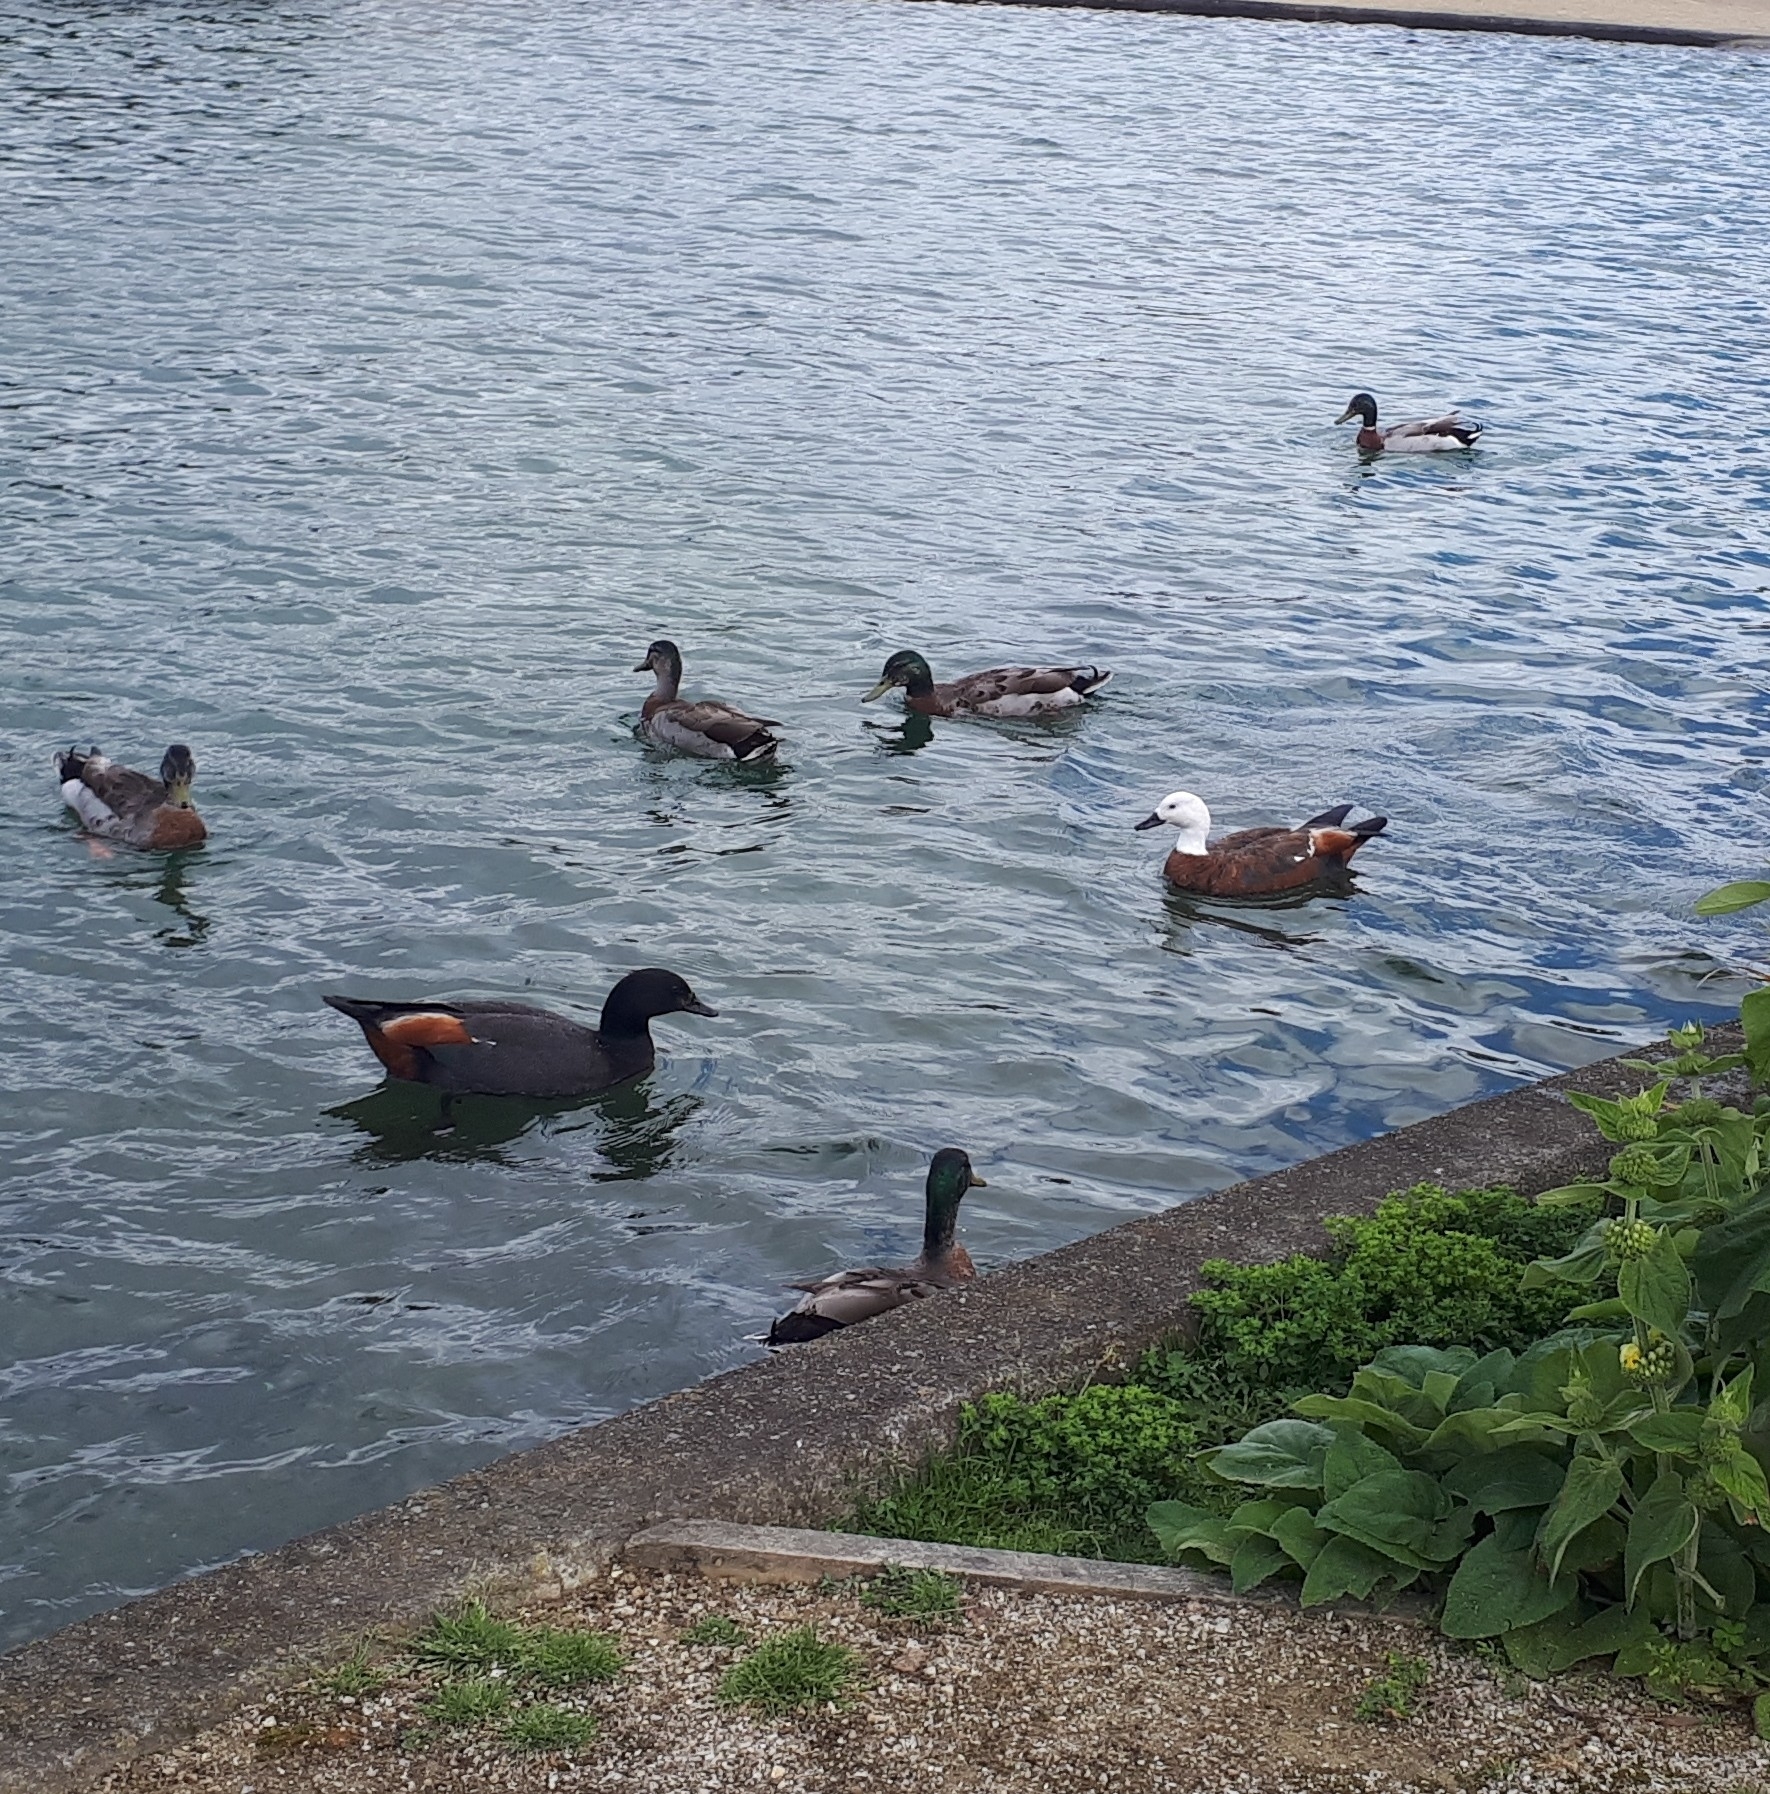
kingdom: Animalia
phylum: Chordata
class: Aves
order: Anseriformes
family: Anatidae
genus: Tadorna
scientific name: Tadorna variegata
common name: Paradise shelduck
